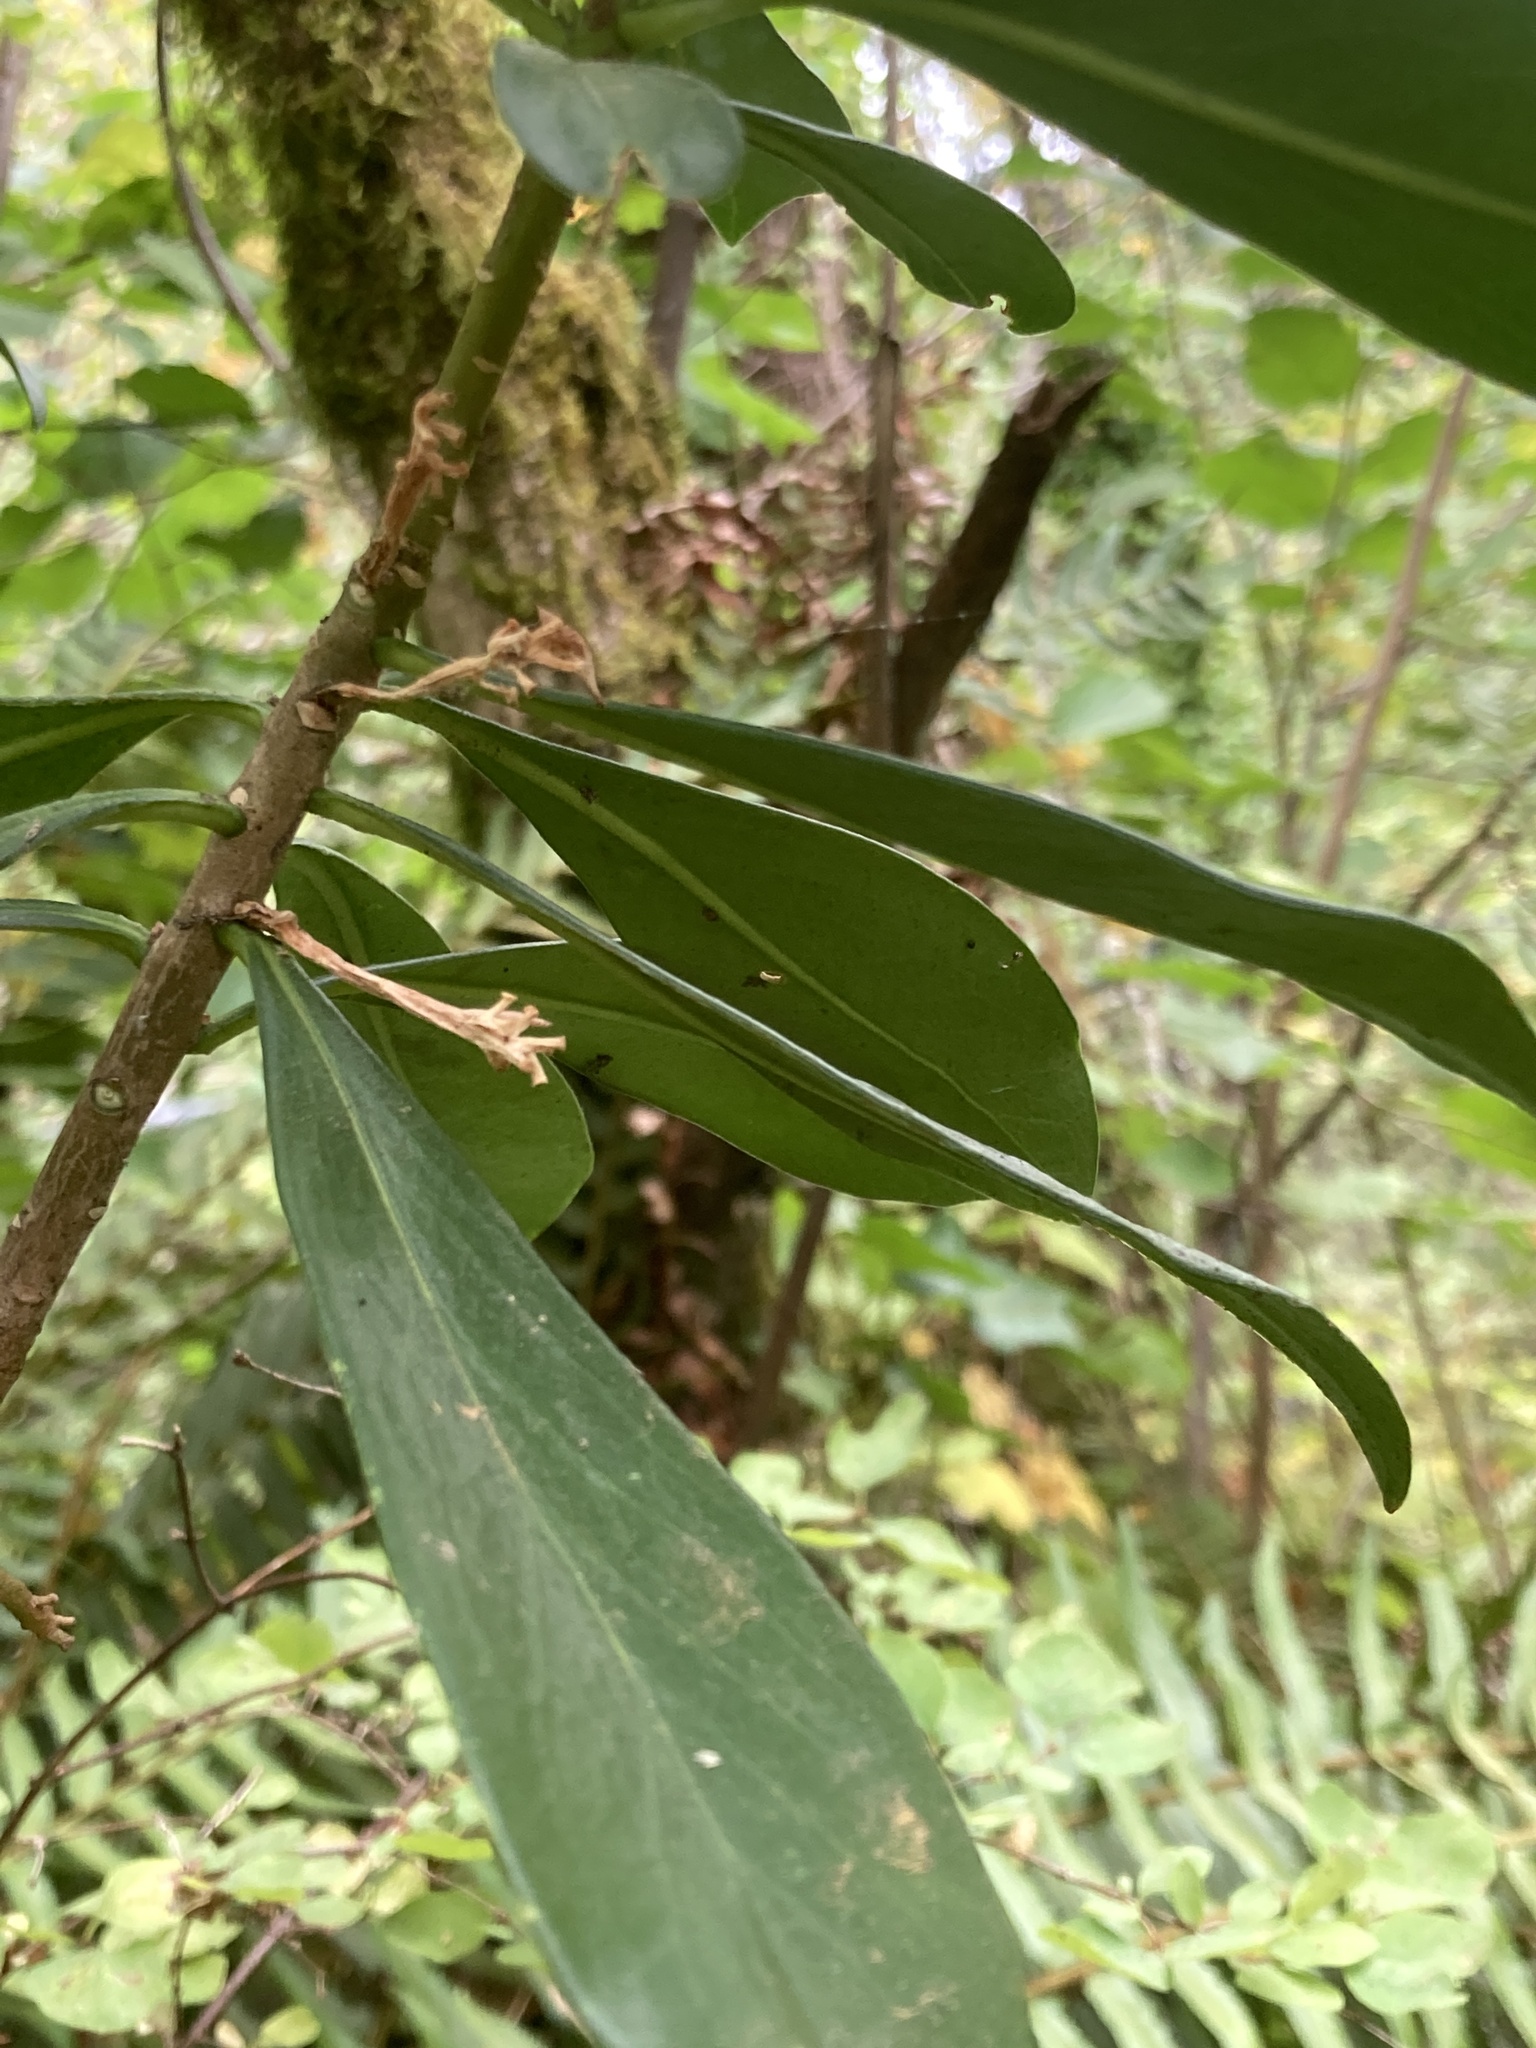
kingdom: Plantae
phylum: Tracheophyta
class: Magnoliopsida
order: Malvales
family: Thymelaeaceae
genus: Daphne
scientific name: Daphne laureola
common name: Spurge-laurel
